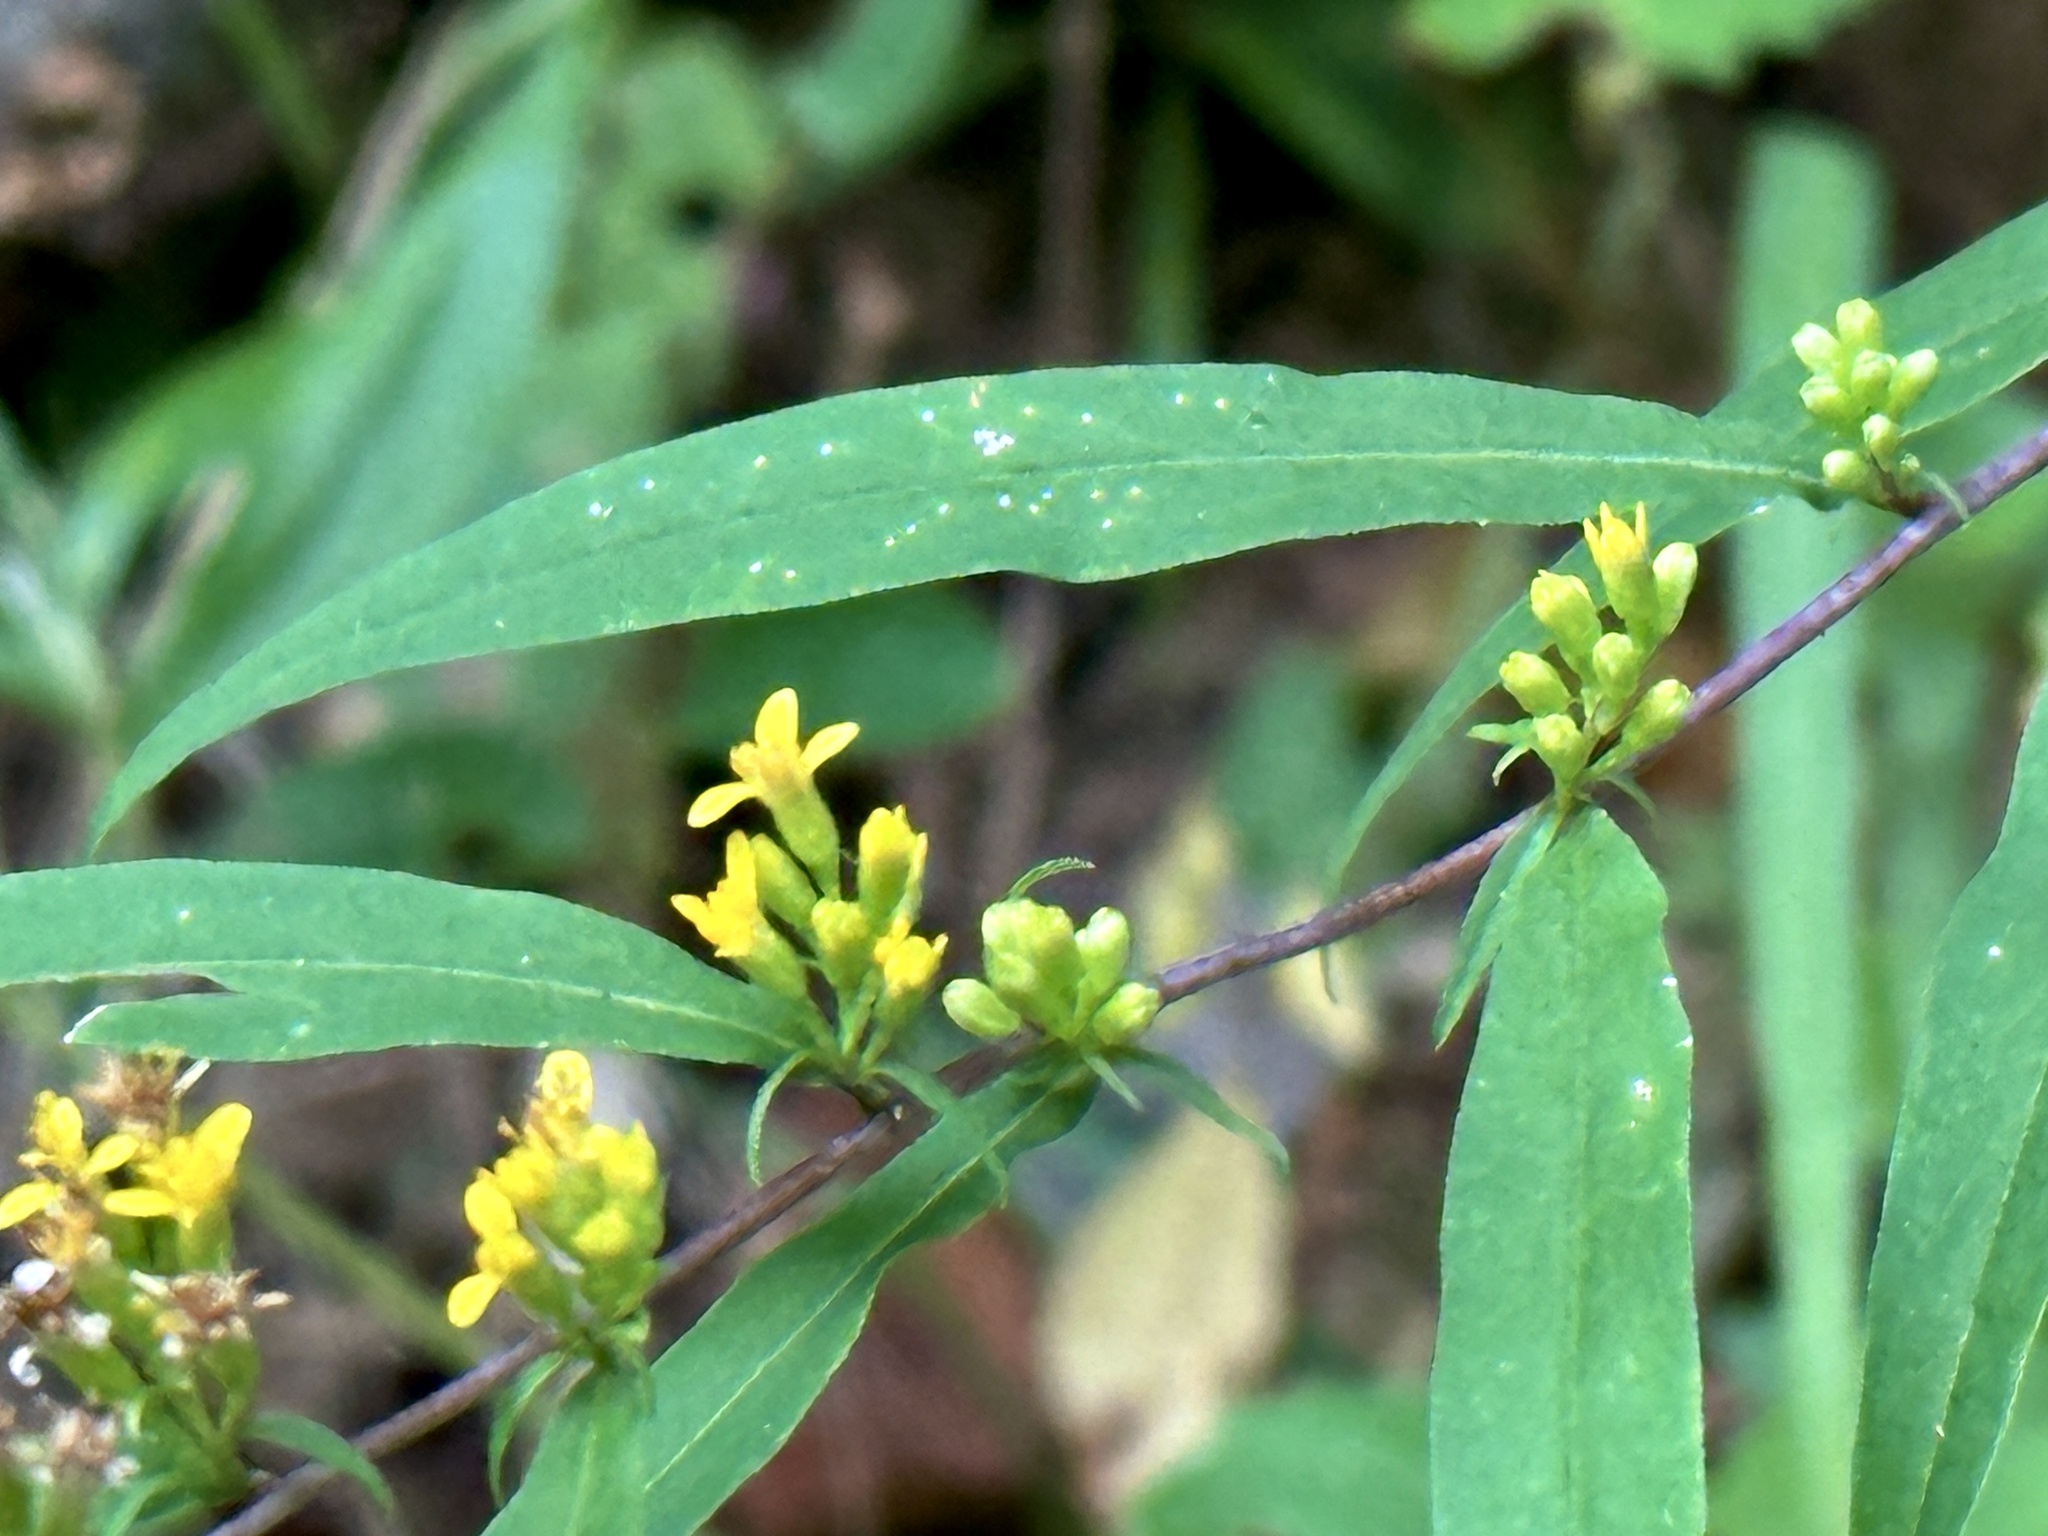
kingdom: Plantae
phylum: Tracheophyta
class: Magnoliopsida
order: Asterales
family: Asteraceae
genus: Solidago
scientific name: Solidago caesia
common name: Woodland goldenrod
